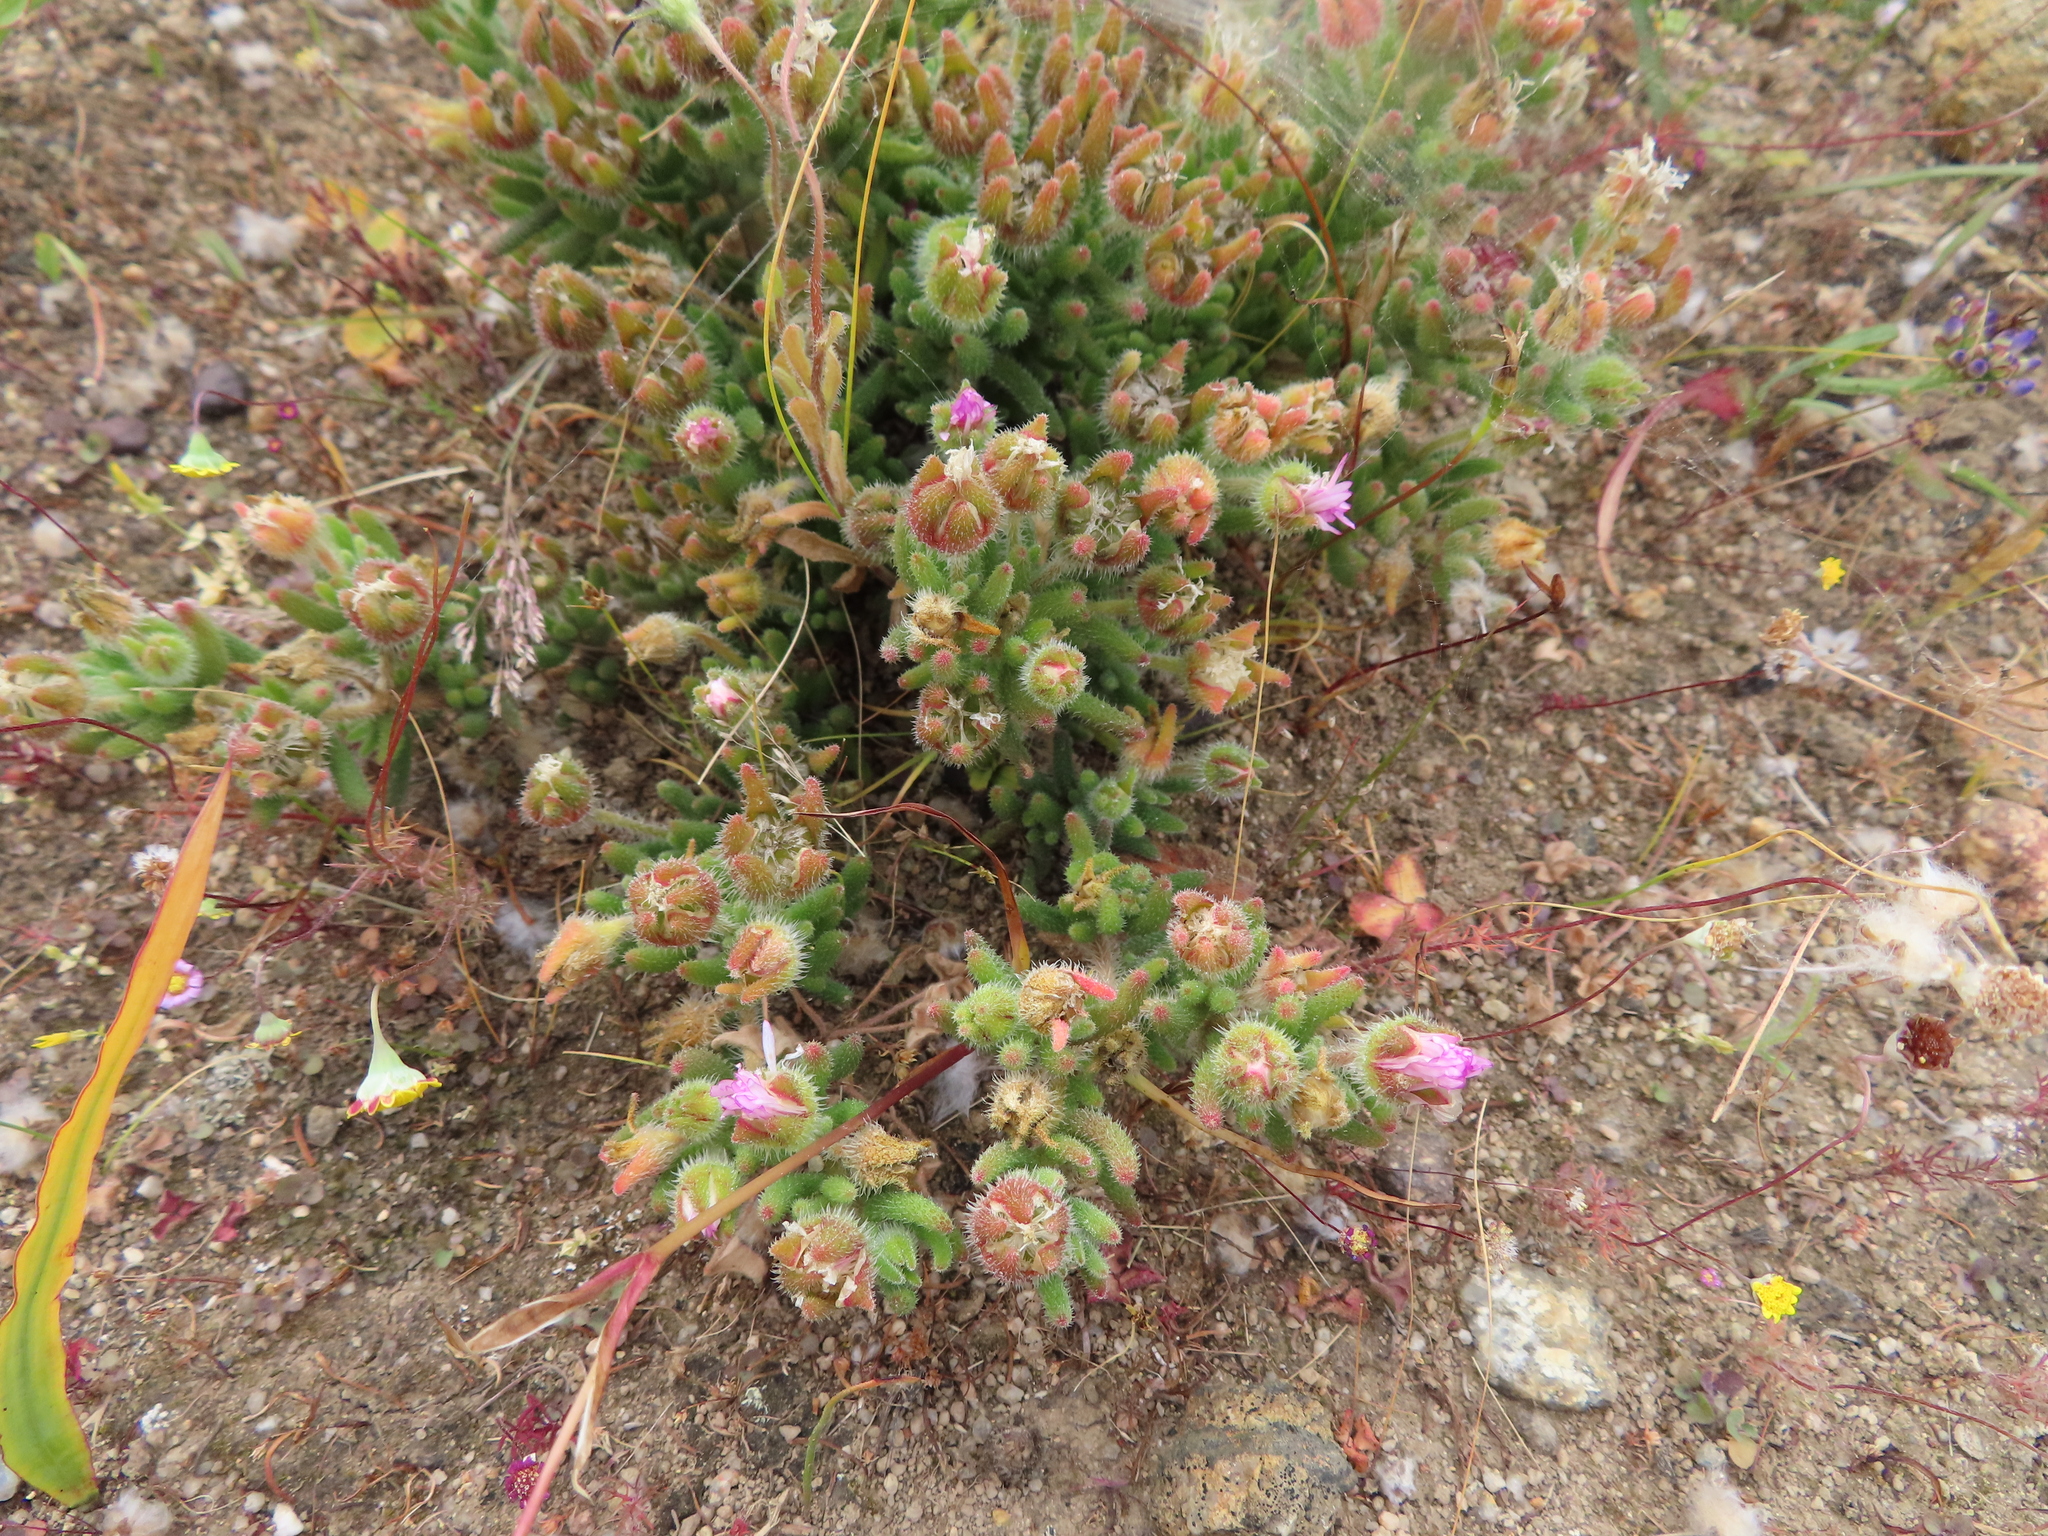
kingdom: Plantae
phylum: Tracheophyta
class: Magnoliopsida
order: Caryophyllales
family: Aizoaceae
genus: Drosanthemum
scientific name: Drosanthemum hispifolium
